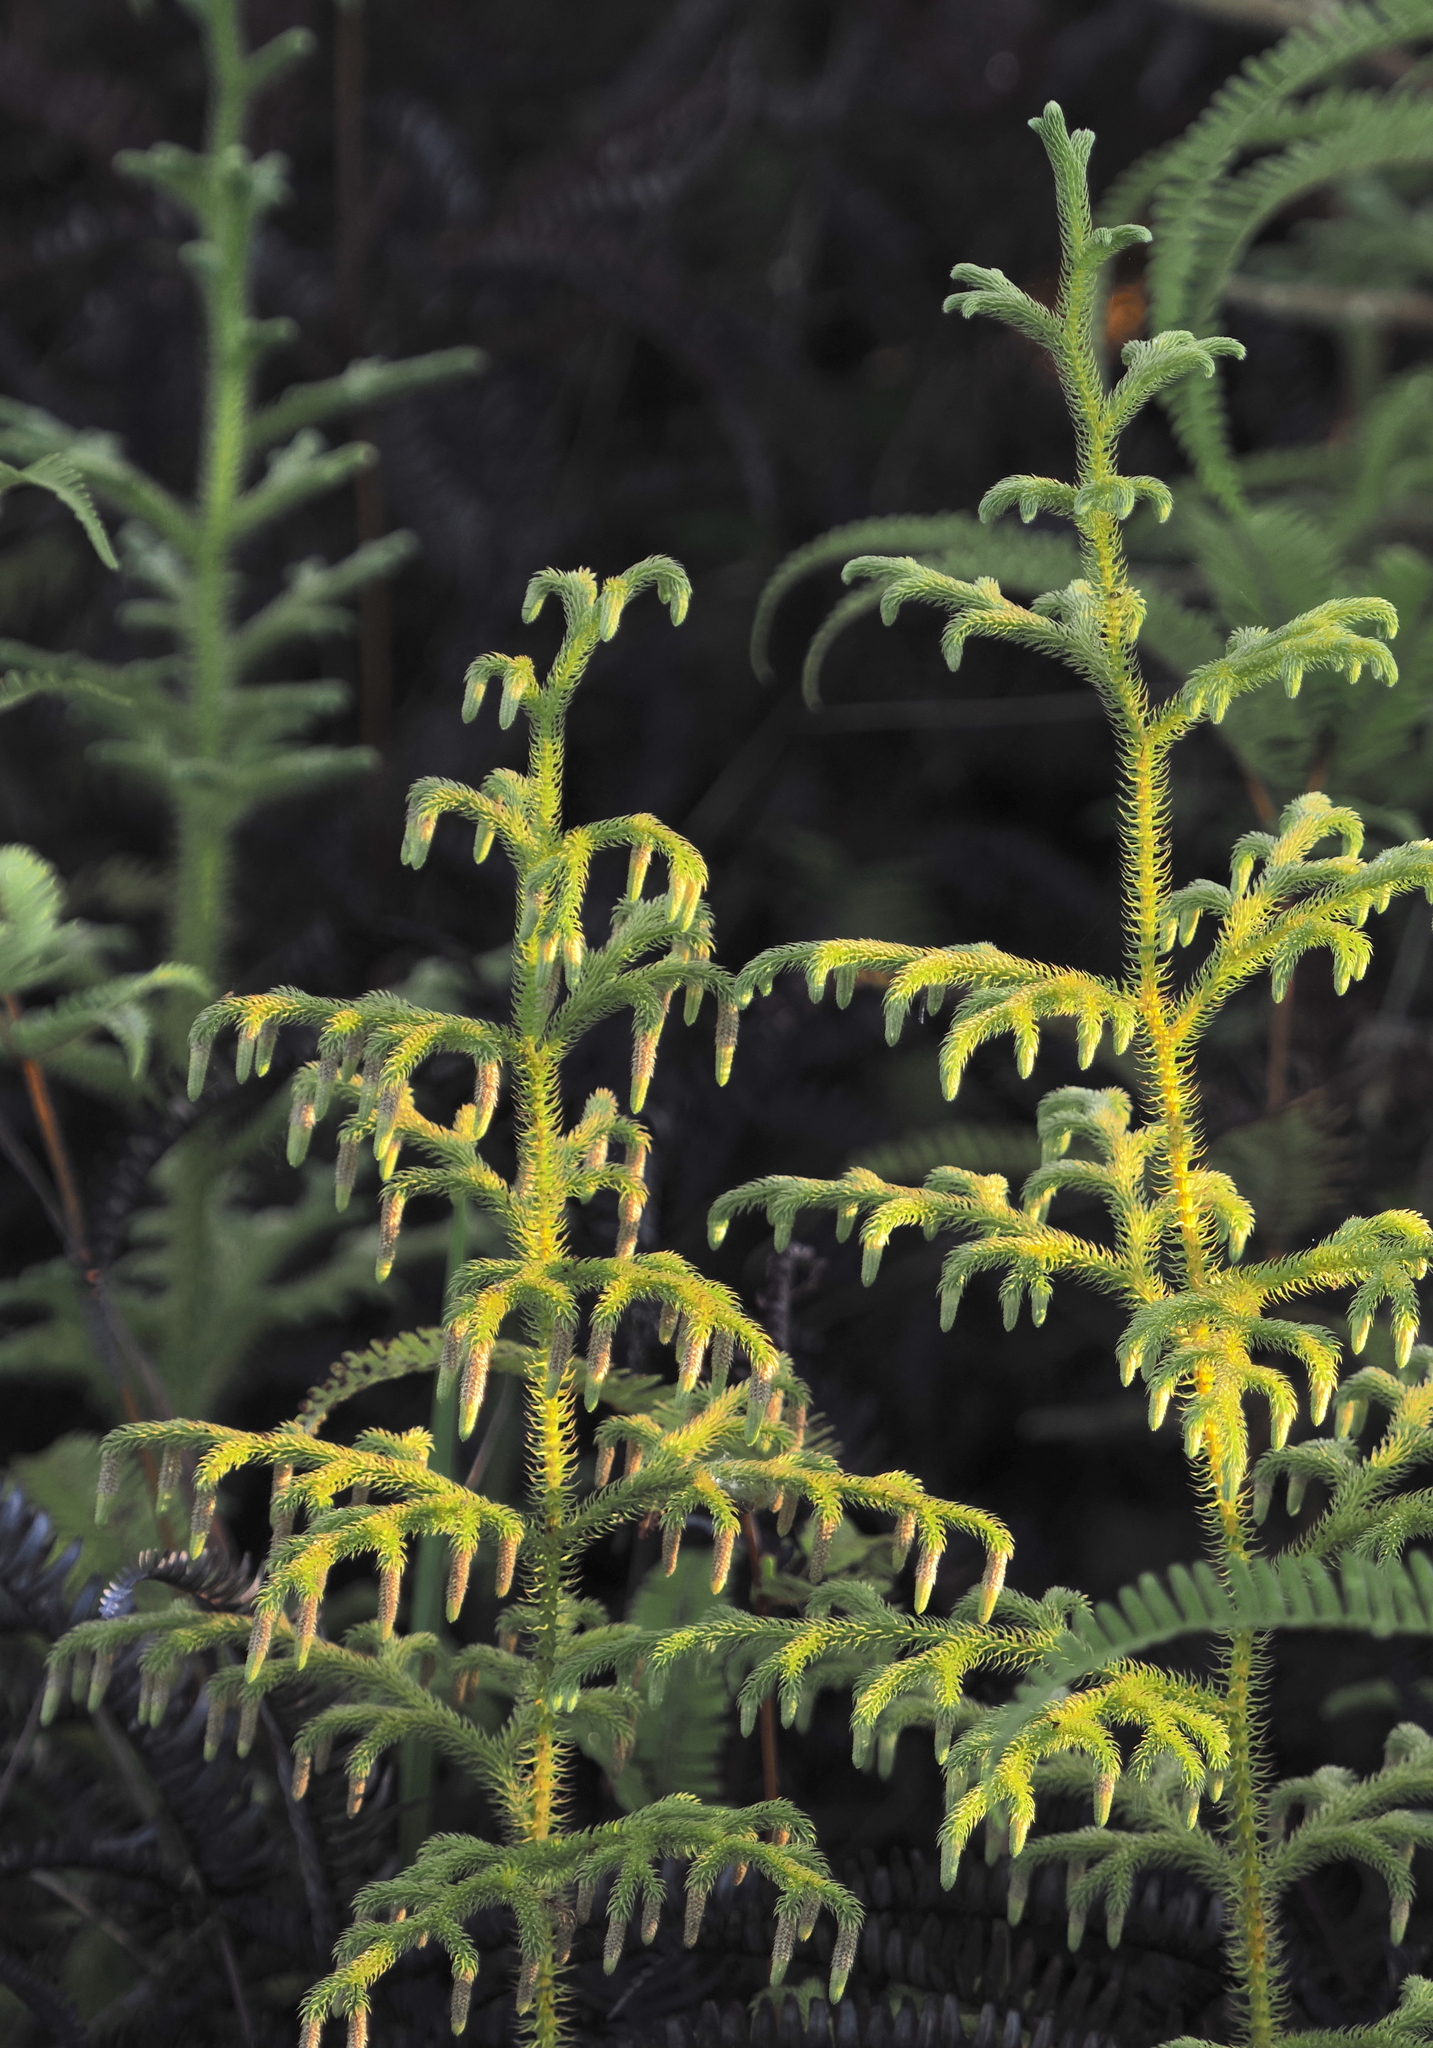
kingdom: Plantae
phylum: Tracheophyta
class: Lycopodiopsida
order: Lycopodiales
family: Lycopodiaceae
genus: Palhinhaea
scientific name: Palhinhaea cernua
